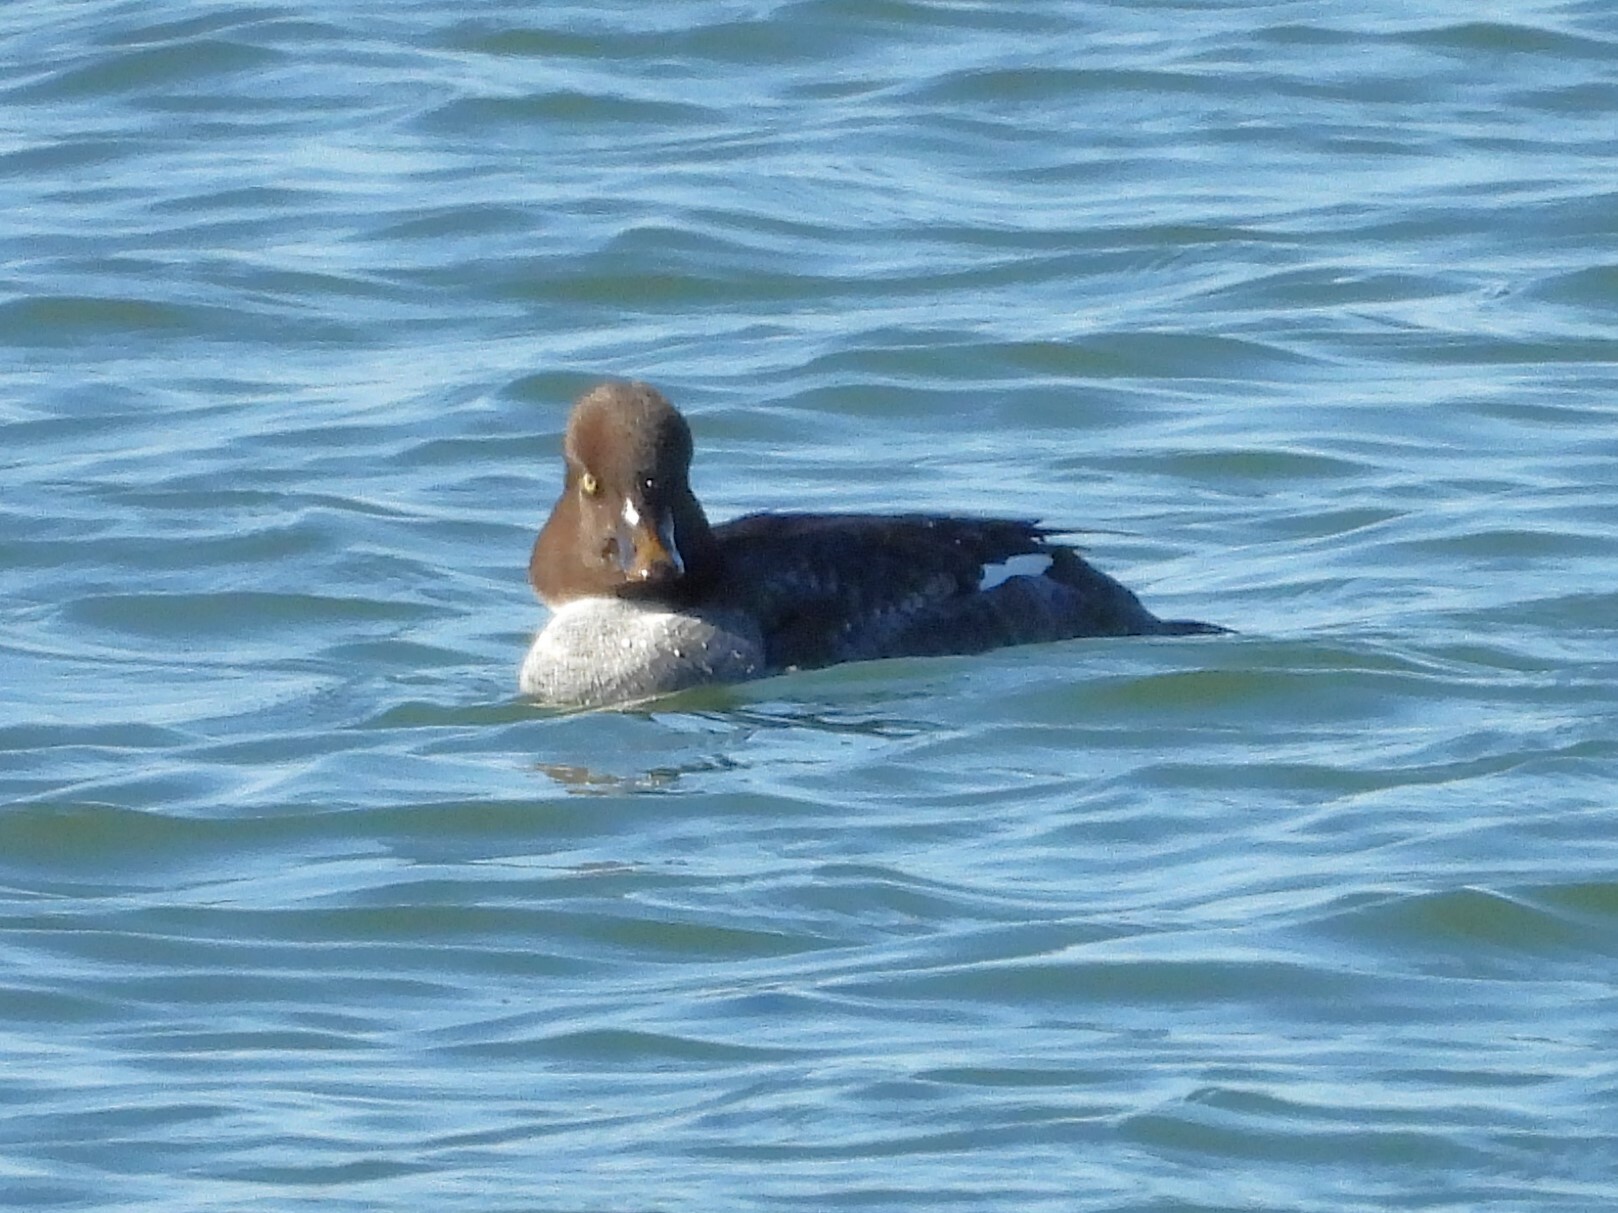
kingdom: Animalia
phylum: Chordata
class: Aves
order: Anseriformes
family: Anatidae
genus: Bucephala
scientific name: Bucephala clangula
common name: Common goldeneye
